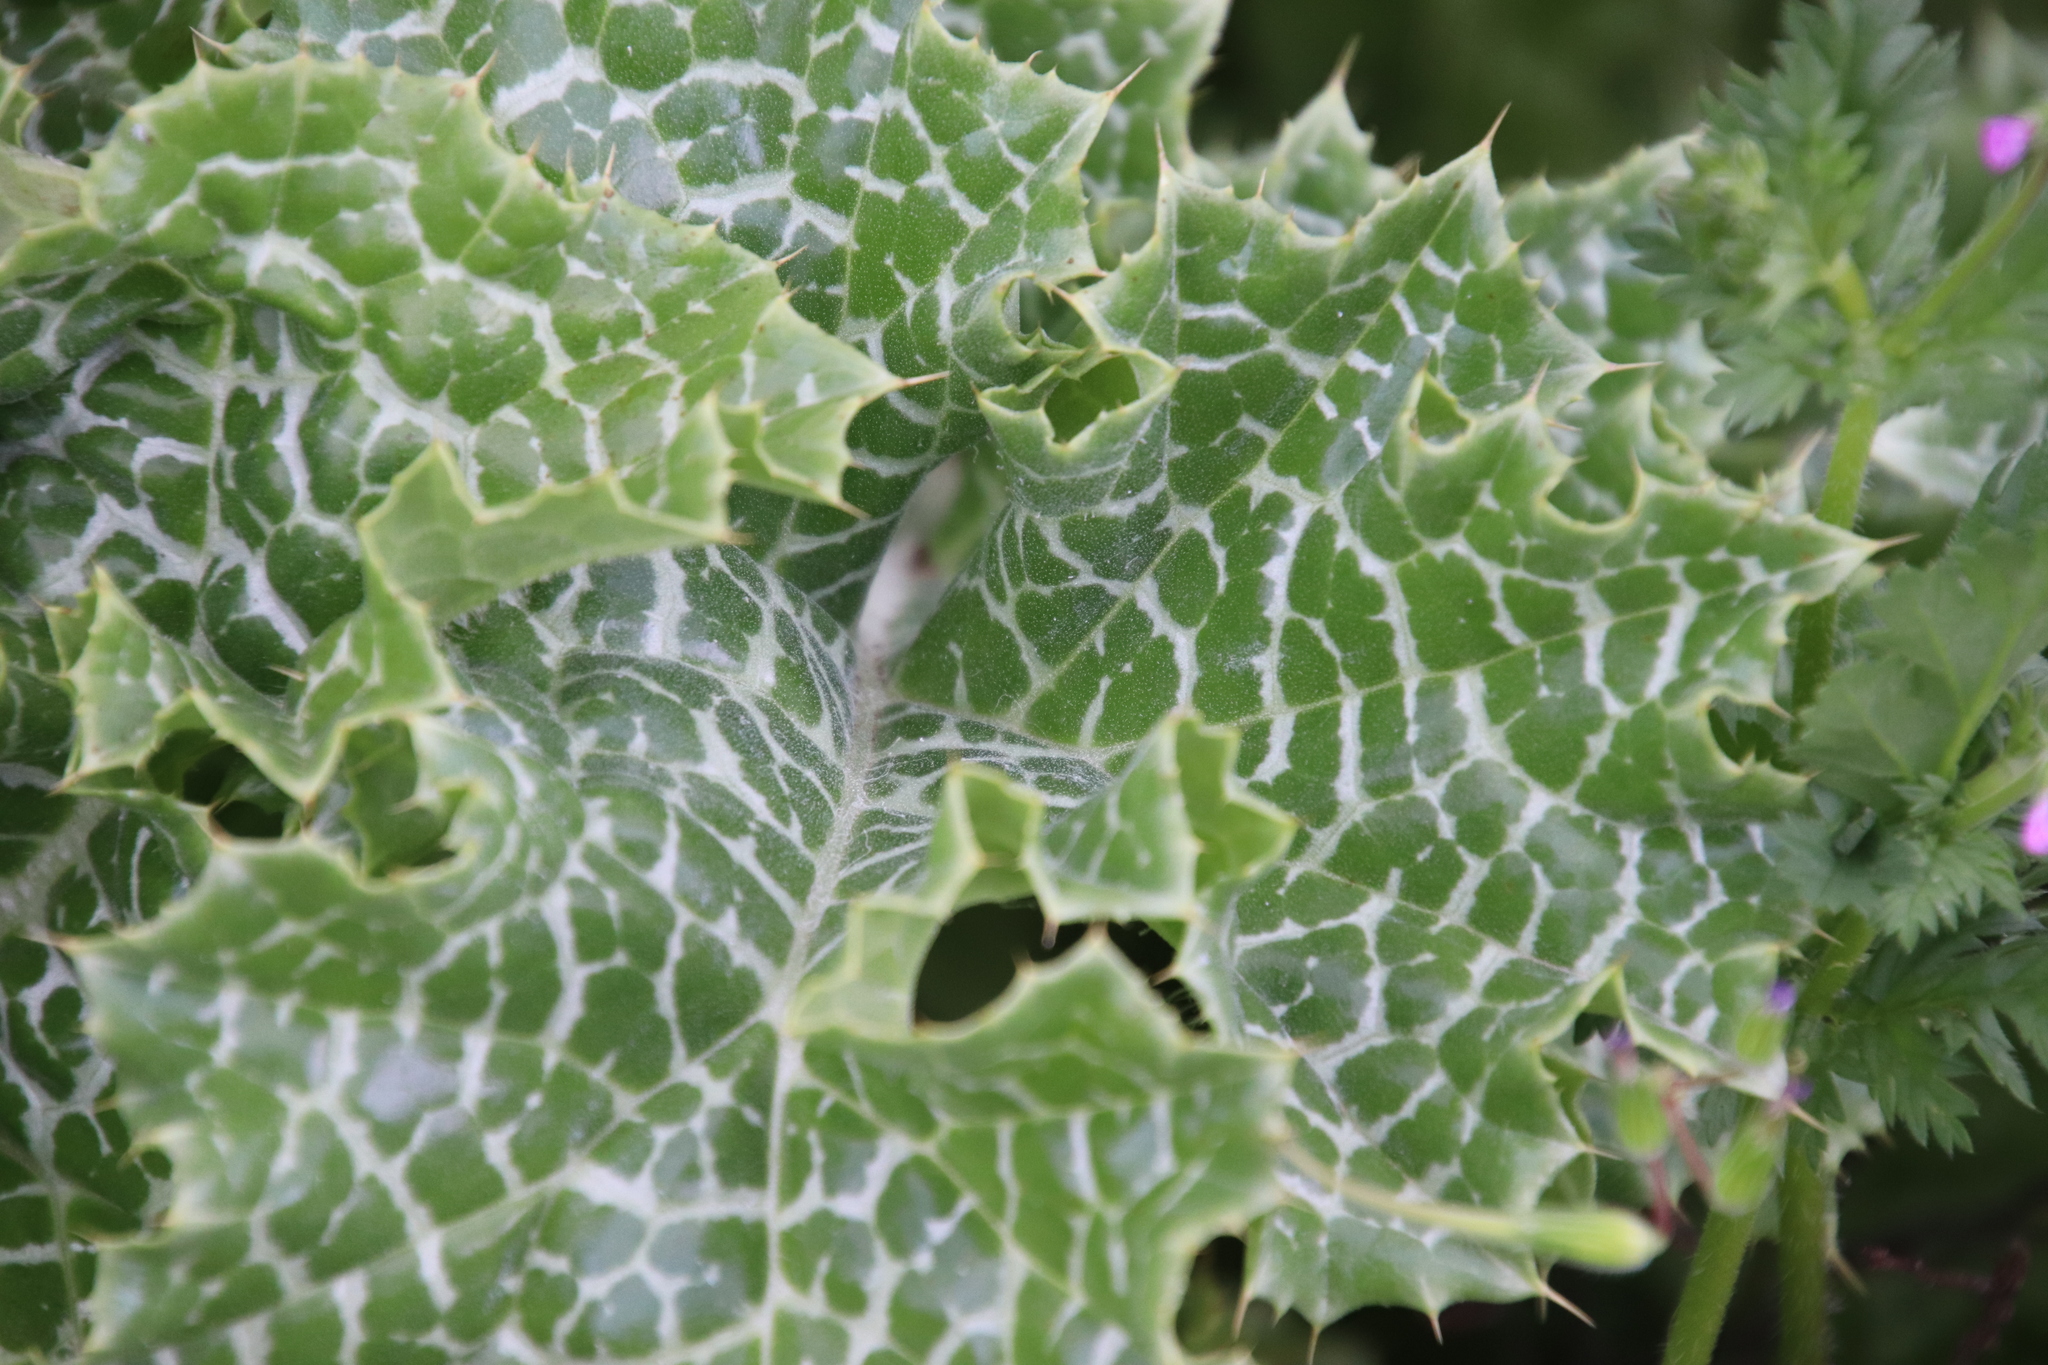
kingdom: Plantae
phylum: Tracheophyta
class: Magnoliopsida
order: Asterales
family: Asteraceae
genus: Silybum
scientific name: Silybum marianum
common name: Milk thistle
